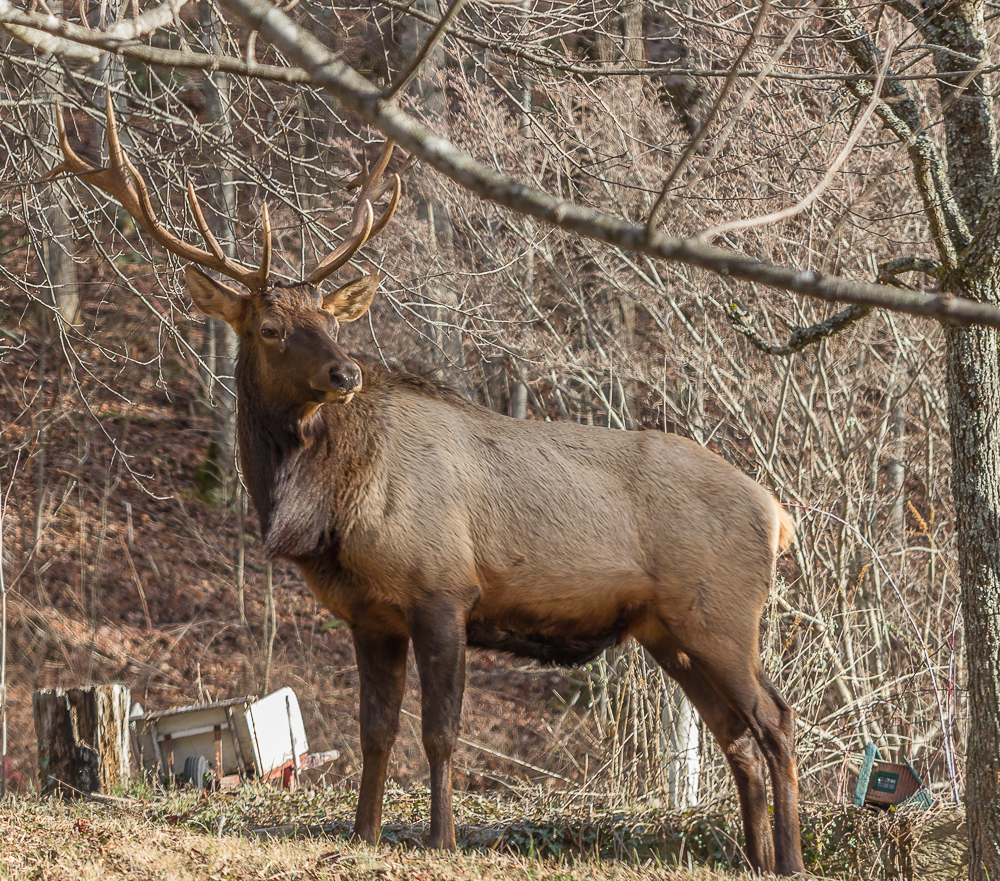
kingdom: Animalia
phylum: Chordata
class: Mammalia
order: Artiodactyla
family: Cervidae
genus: Cervus
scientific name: Cervus elaphus
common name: Red deer
